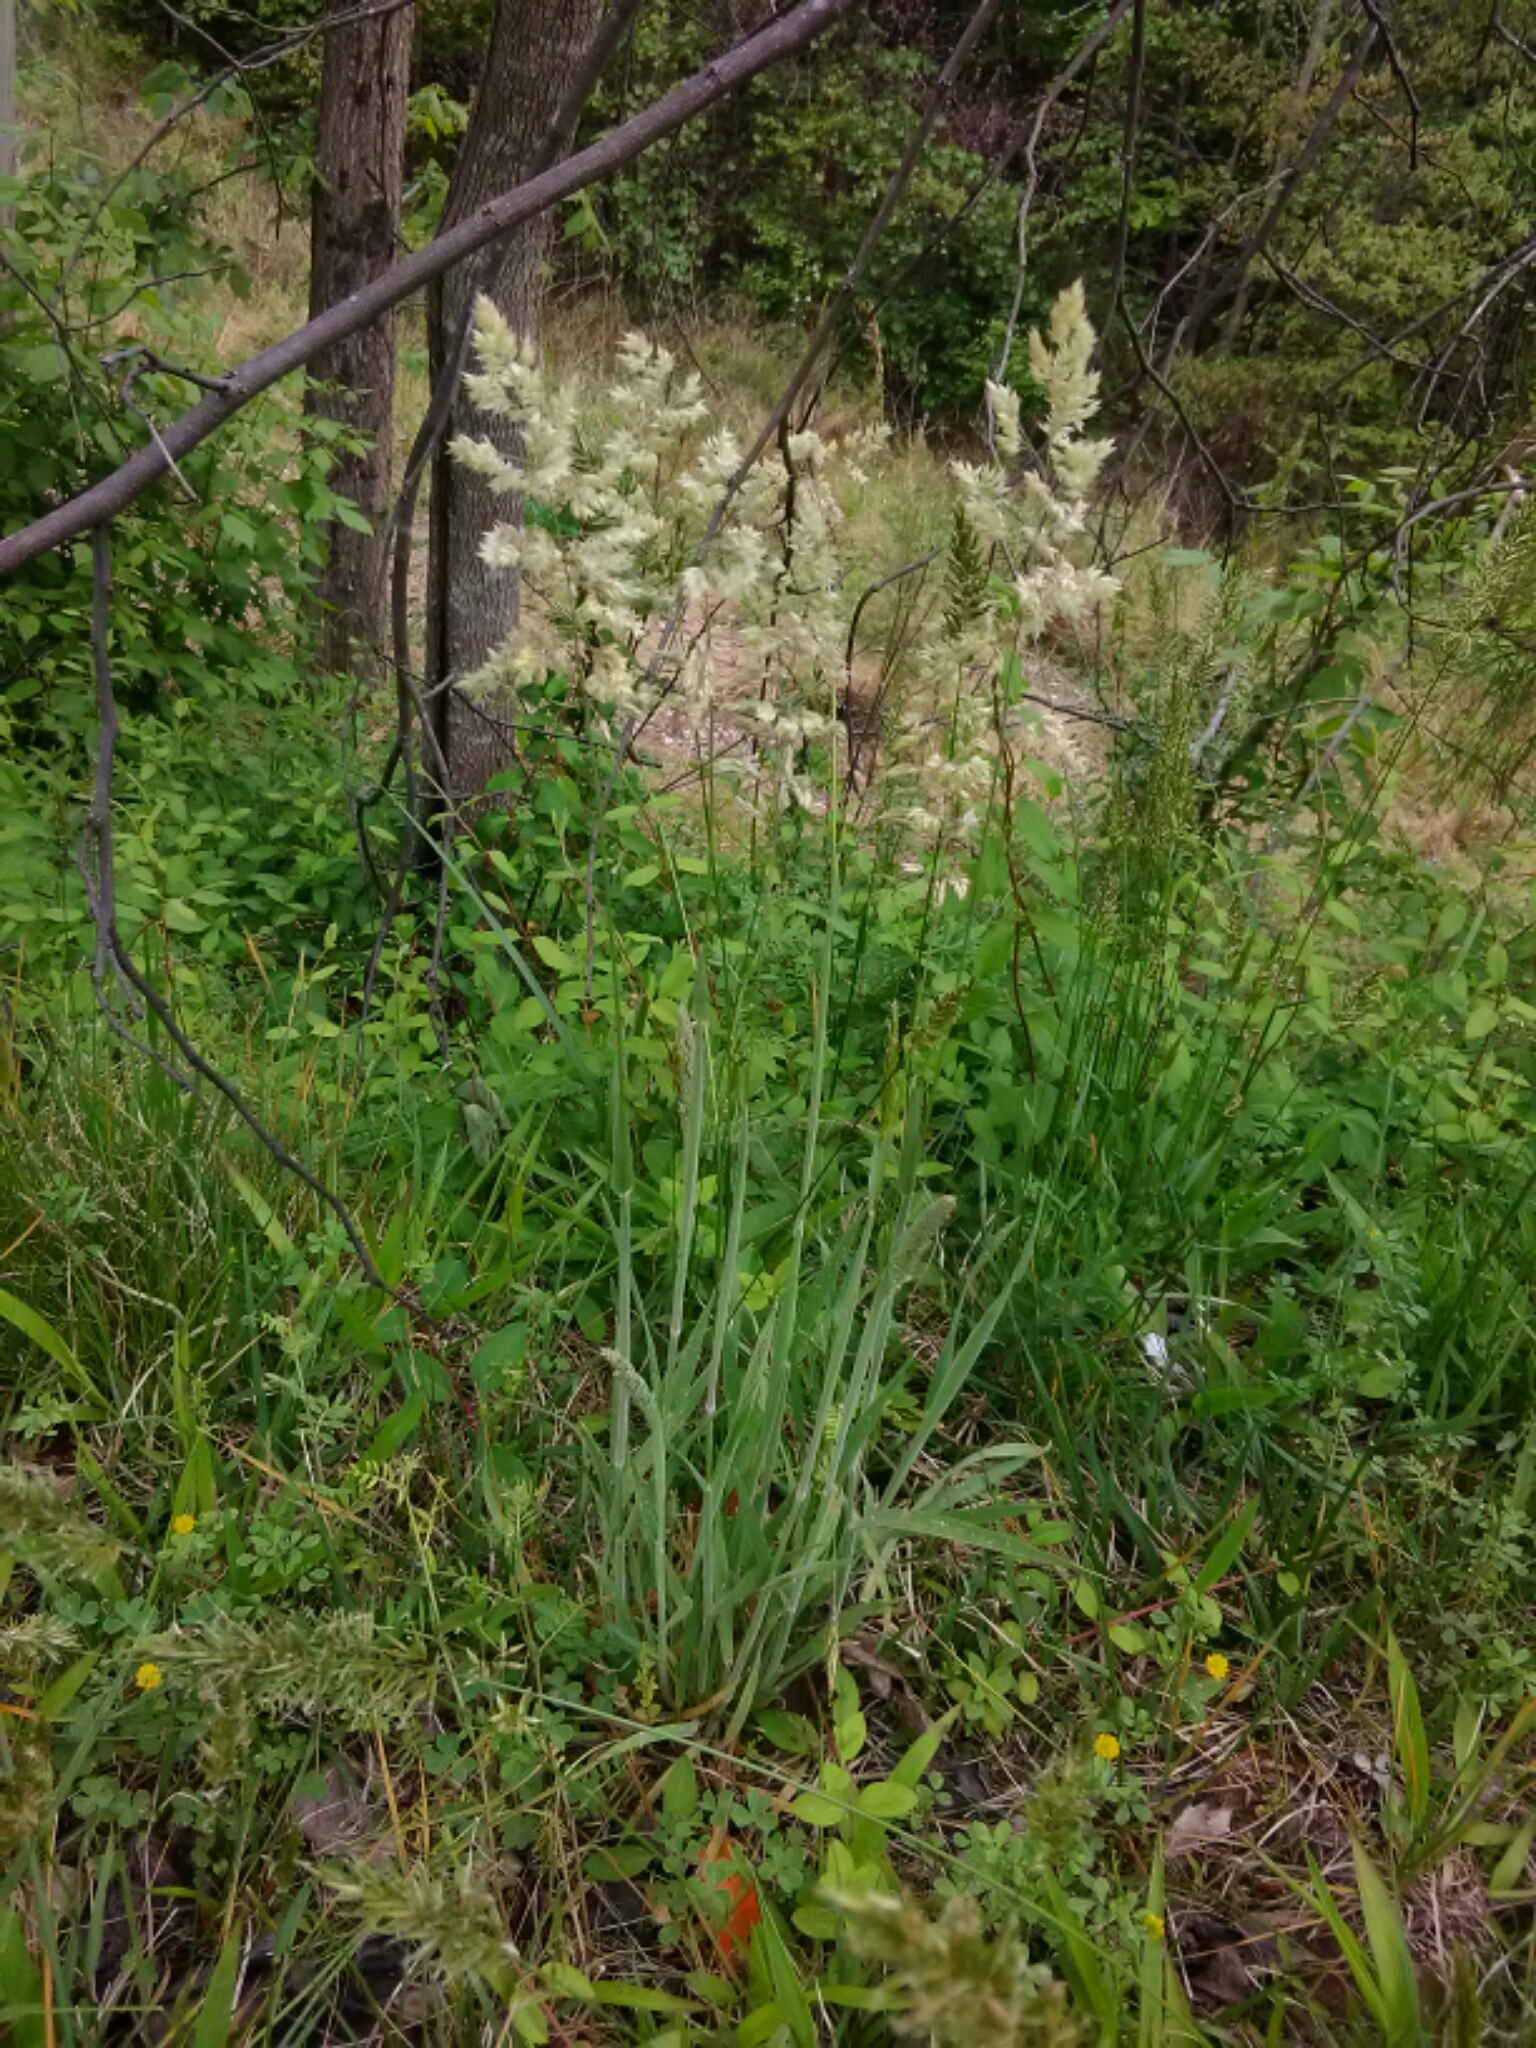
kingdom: Plantae
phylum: Tracheophyta
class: Liliopsida
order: Poales
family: Poaceae
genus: Holcus
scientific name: Holcus lanatus
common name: Yorkshire-fog
